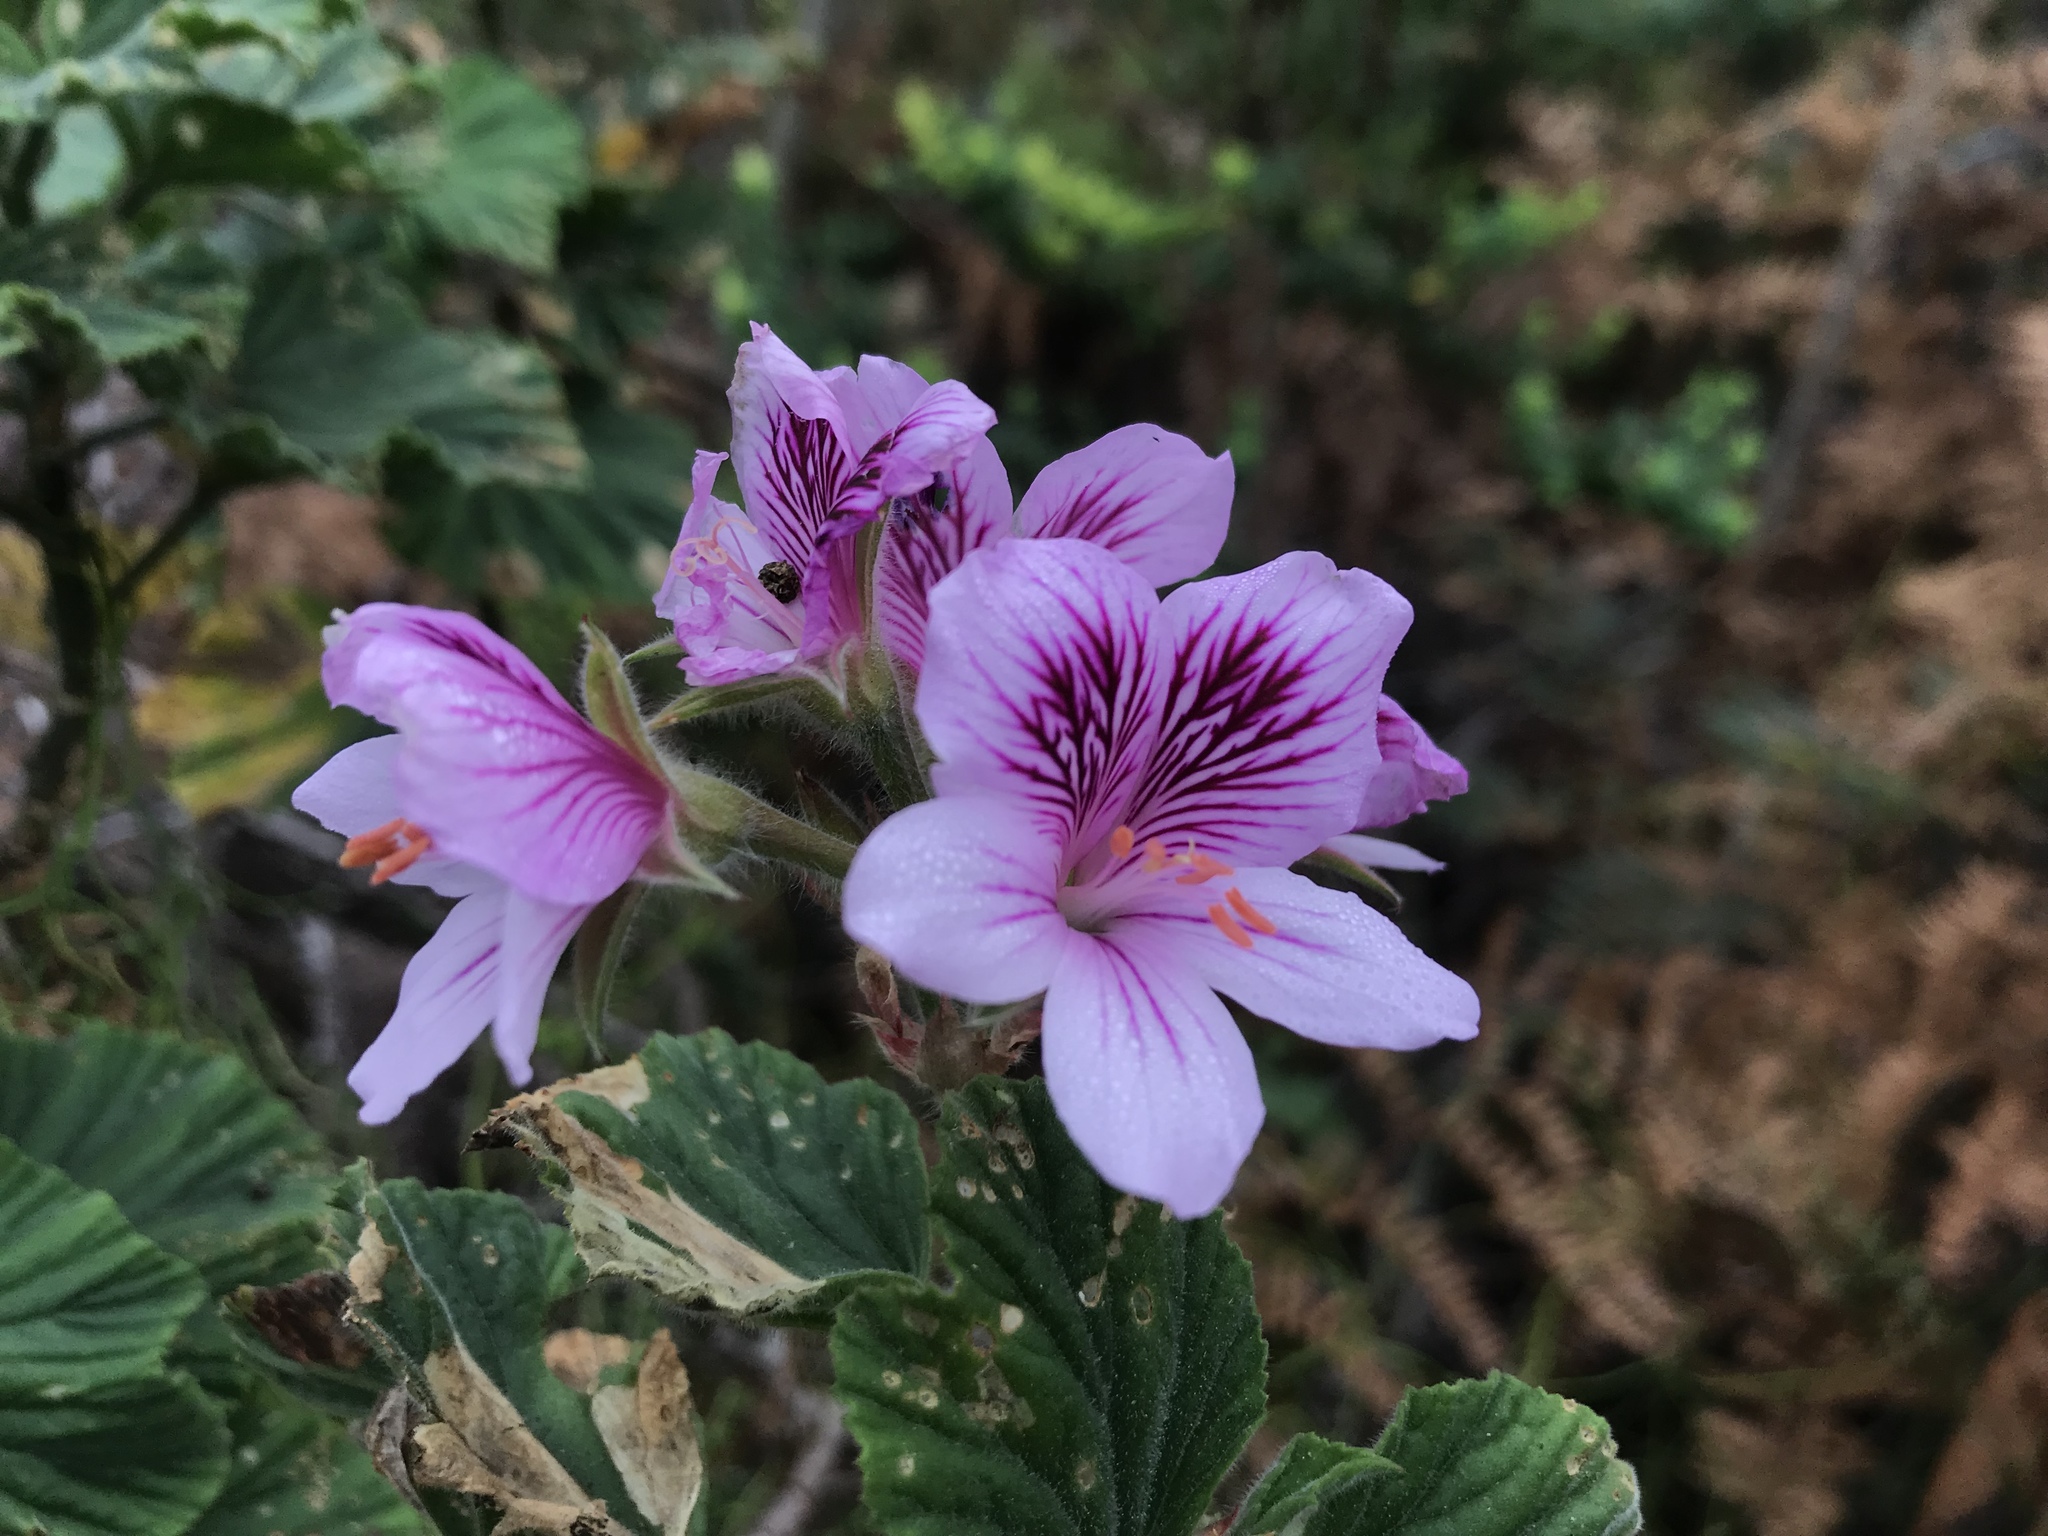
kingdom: Plantae
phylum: Tracheophyta
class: Magnoliopsida
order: Geraniales
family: Geraniaceae
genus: Pelargonium
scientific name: Pelargonium cucullatum
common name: Tree pelargonium
